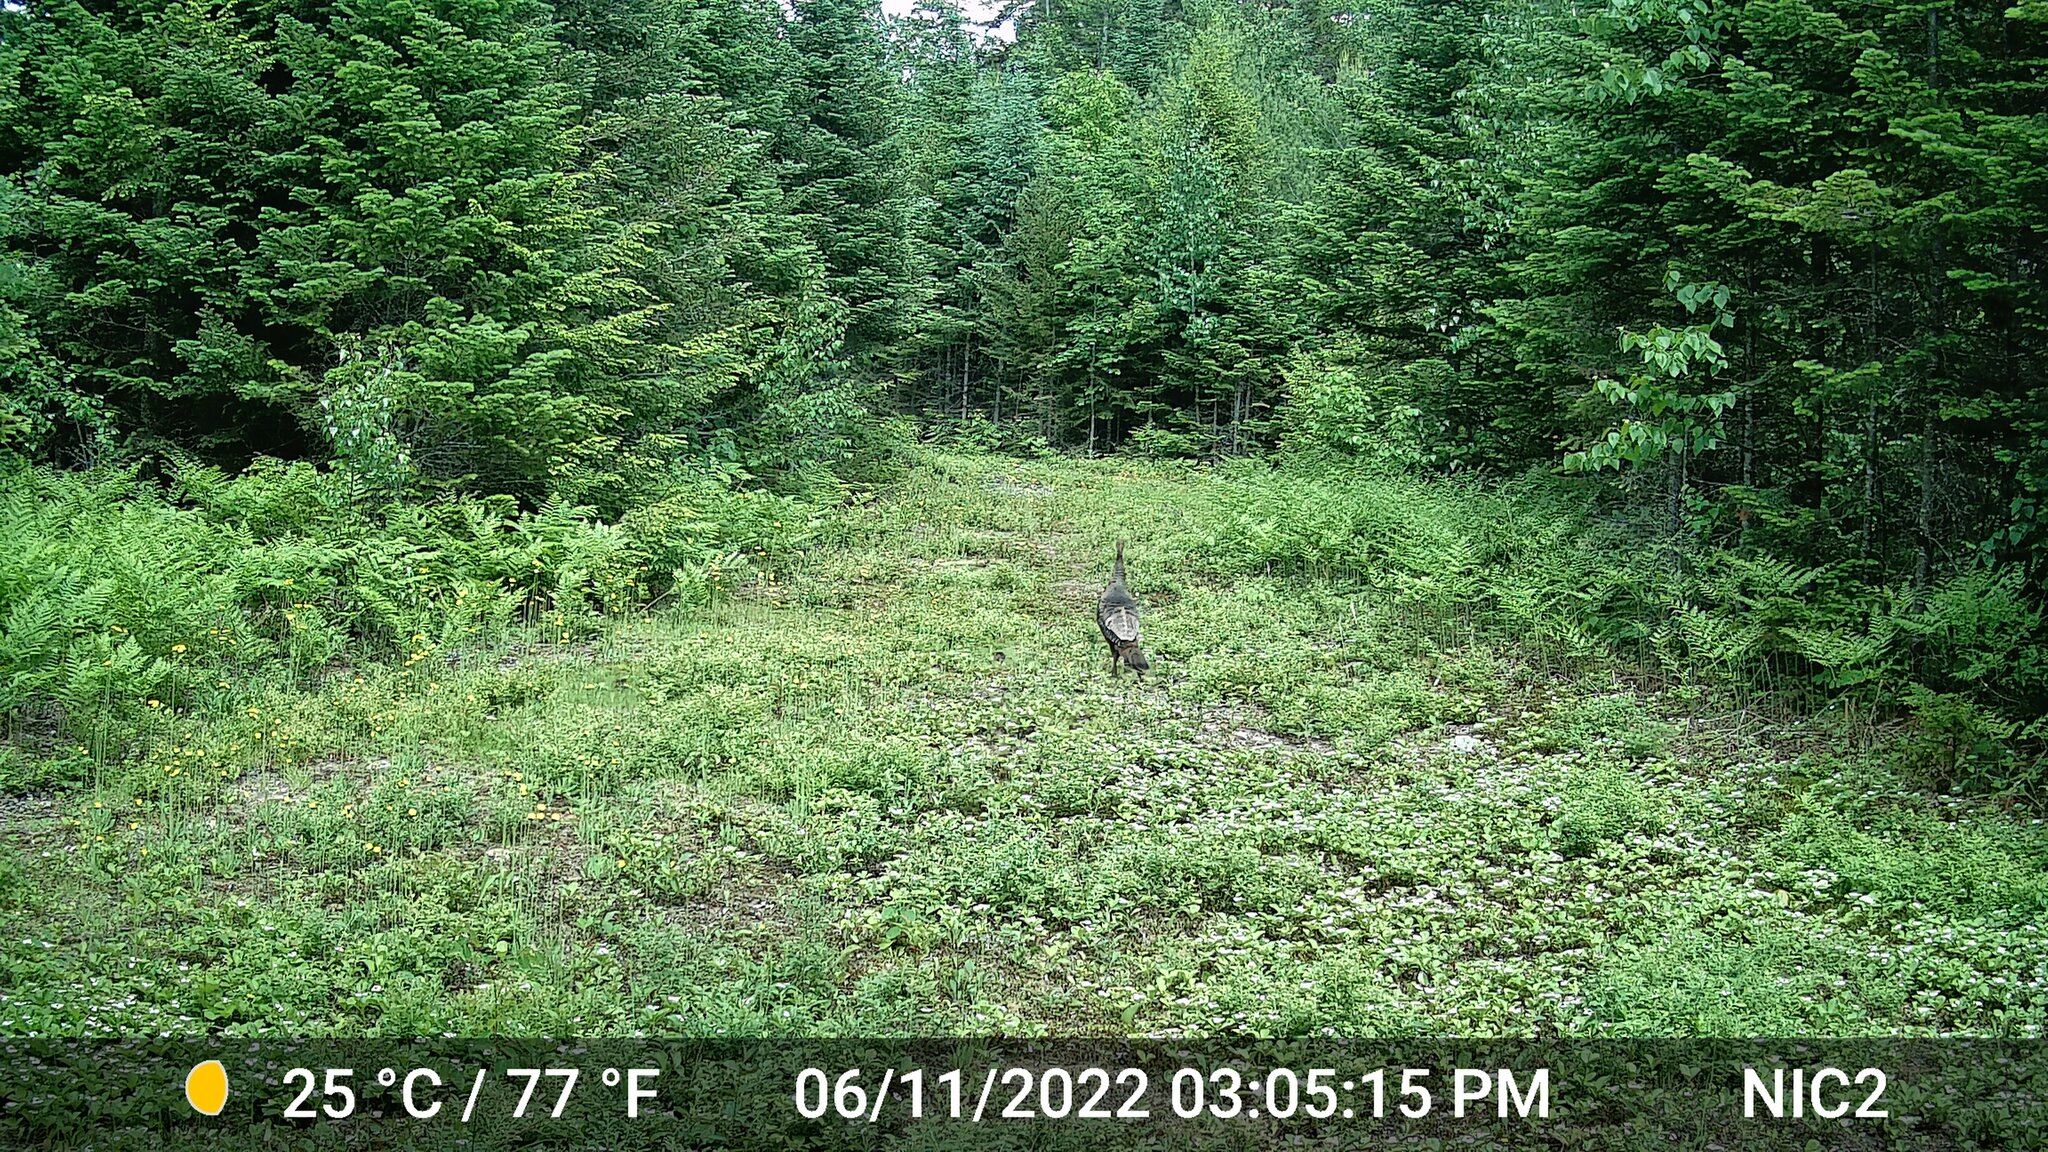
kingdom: Animalia
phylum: Chordata
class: Aves
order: Galliformes
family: Phasianidae
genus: Meleagris
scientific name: Meleagris gallopavo
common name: Wild turkey
